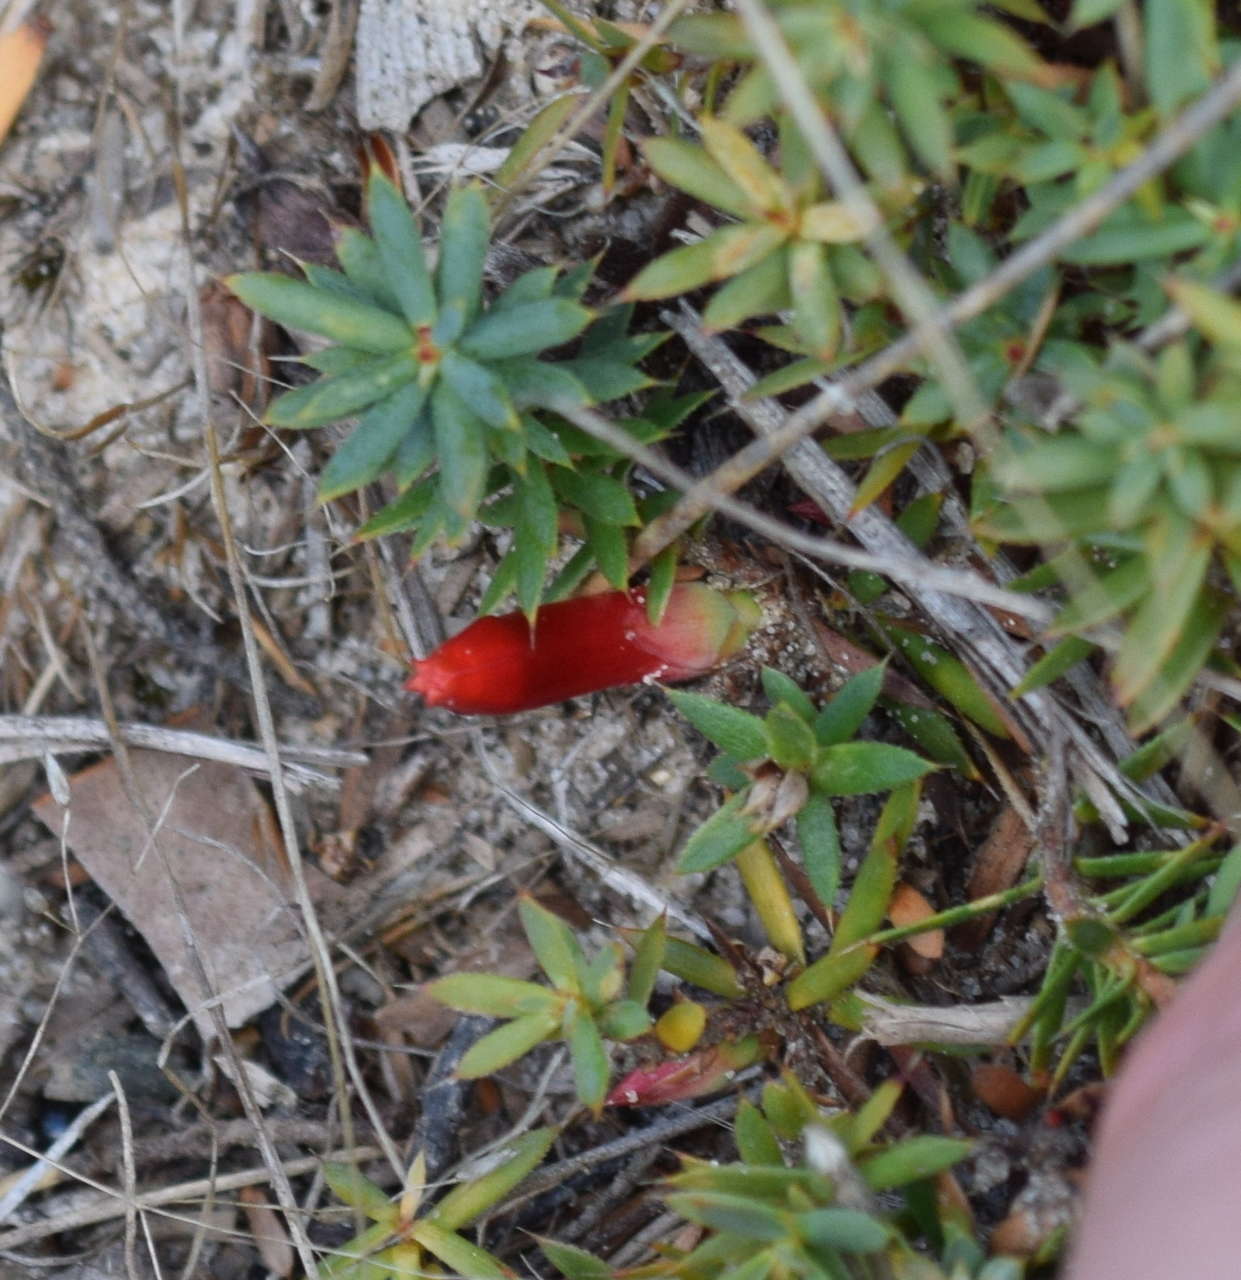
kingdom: Plantae
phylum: Tracheophyta
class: Magnoliopsida
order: Ericales
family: Ericaceae
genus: Styphelia
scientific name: Styphelia humifusa
